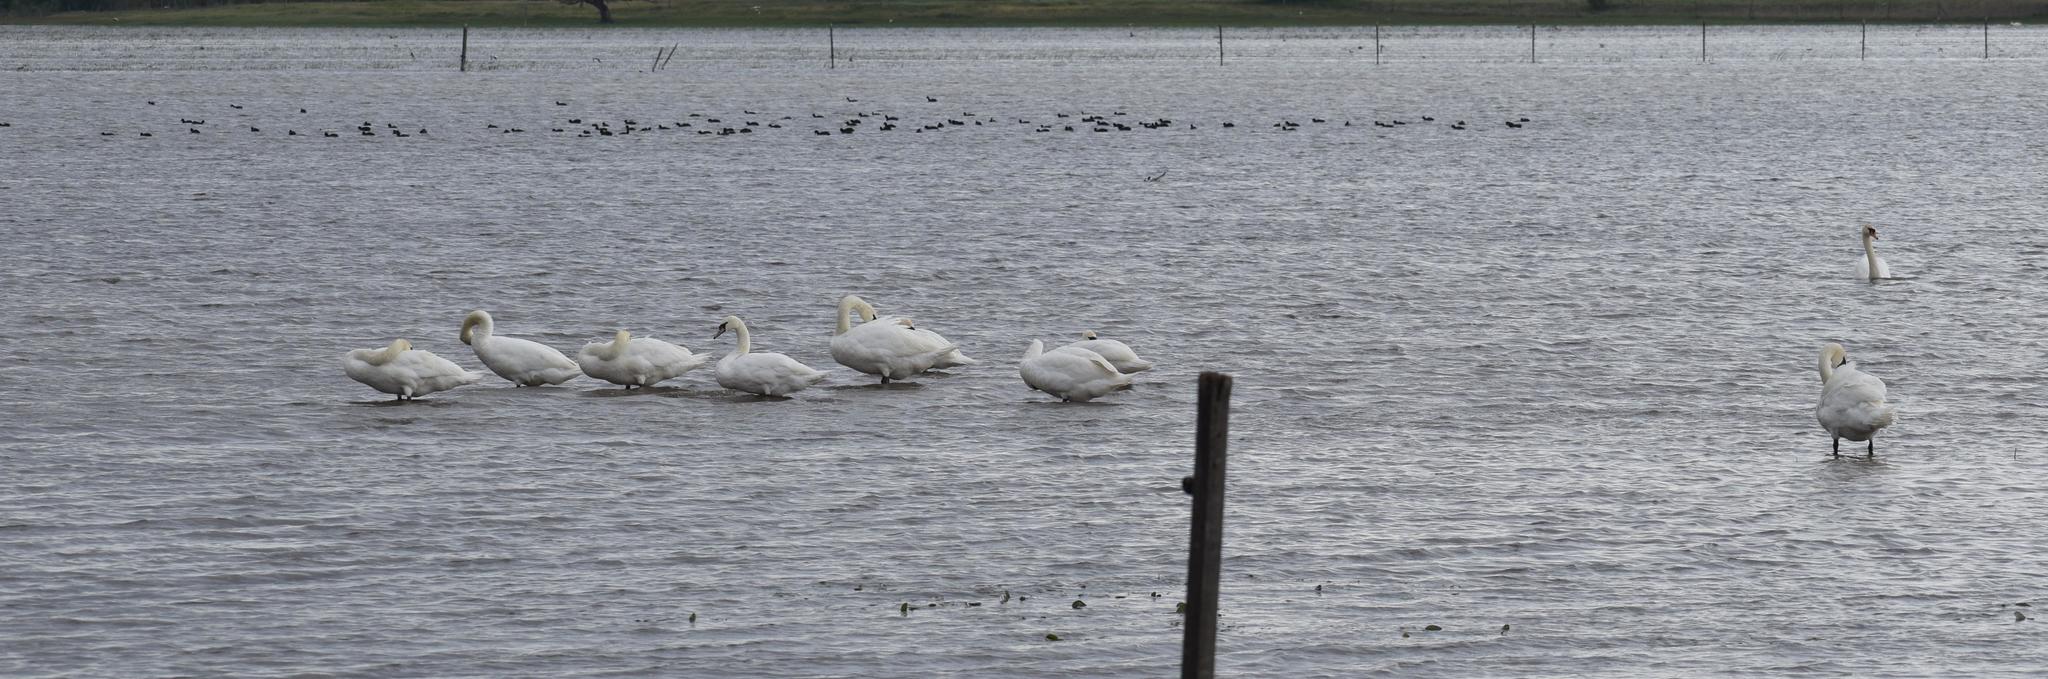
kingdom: Animalia
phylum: Chordata
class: Aves
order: Anseriformes
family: Anatidae
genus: Cygnus
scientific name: Cygnus olor
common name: Mute swan
